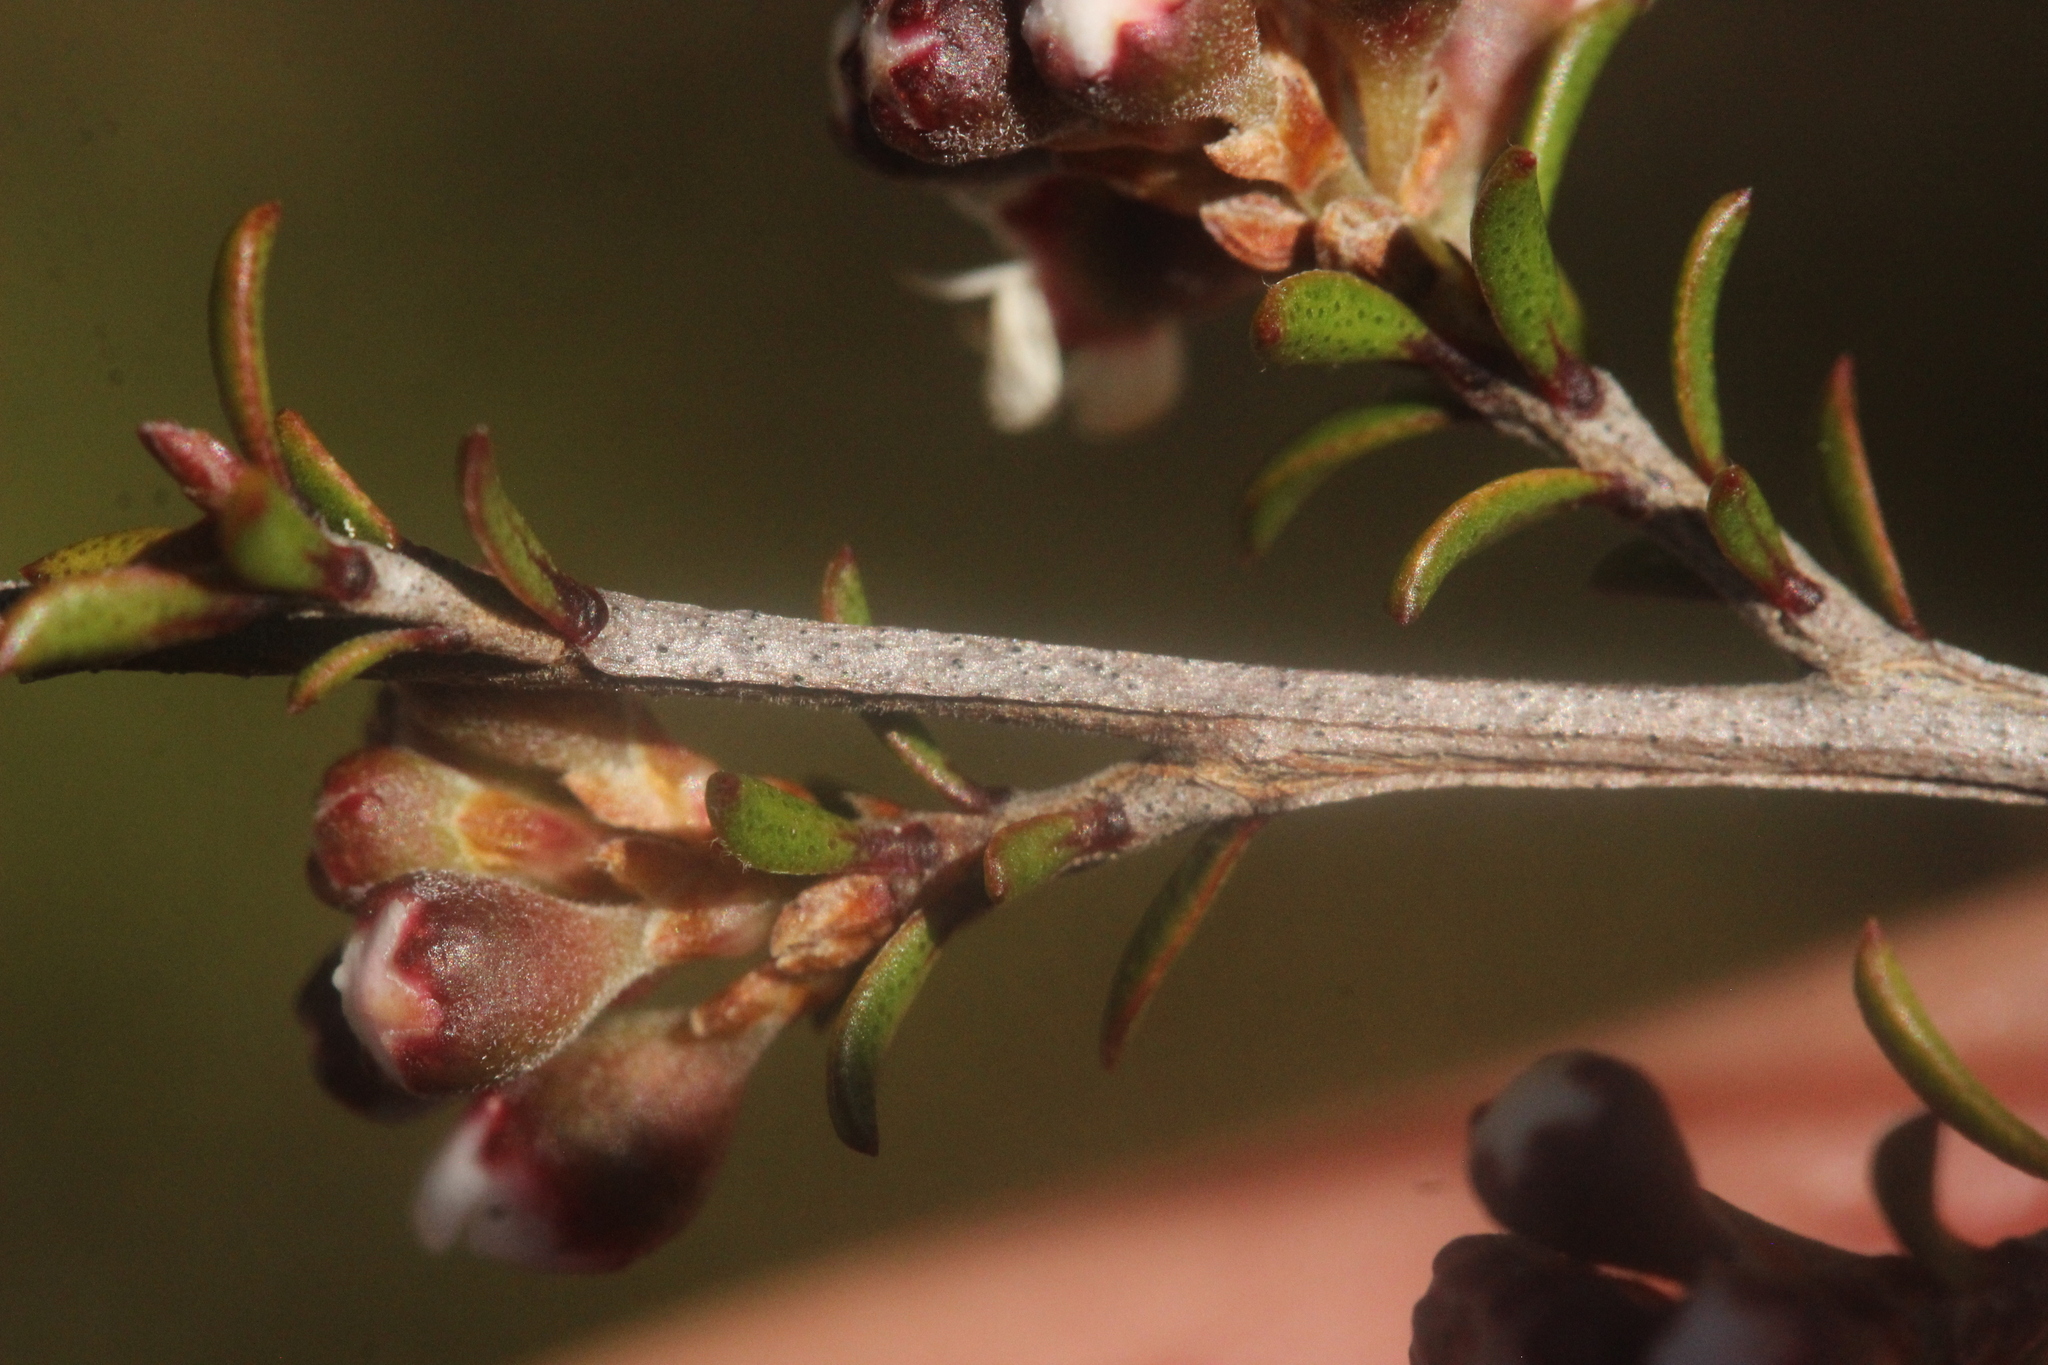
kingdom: Plantae
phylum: Tracheophyta
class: Magnoliopsida
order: Myrtales
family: Myrtaceae
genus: Kunzea
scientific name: Kunzea tenuicaulis
